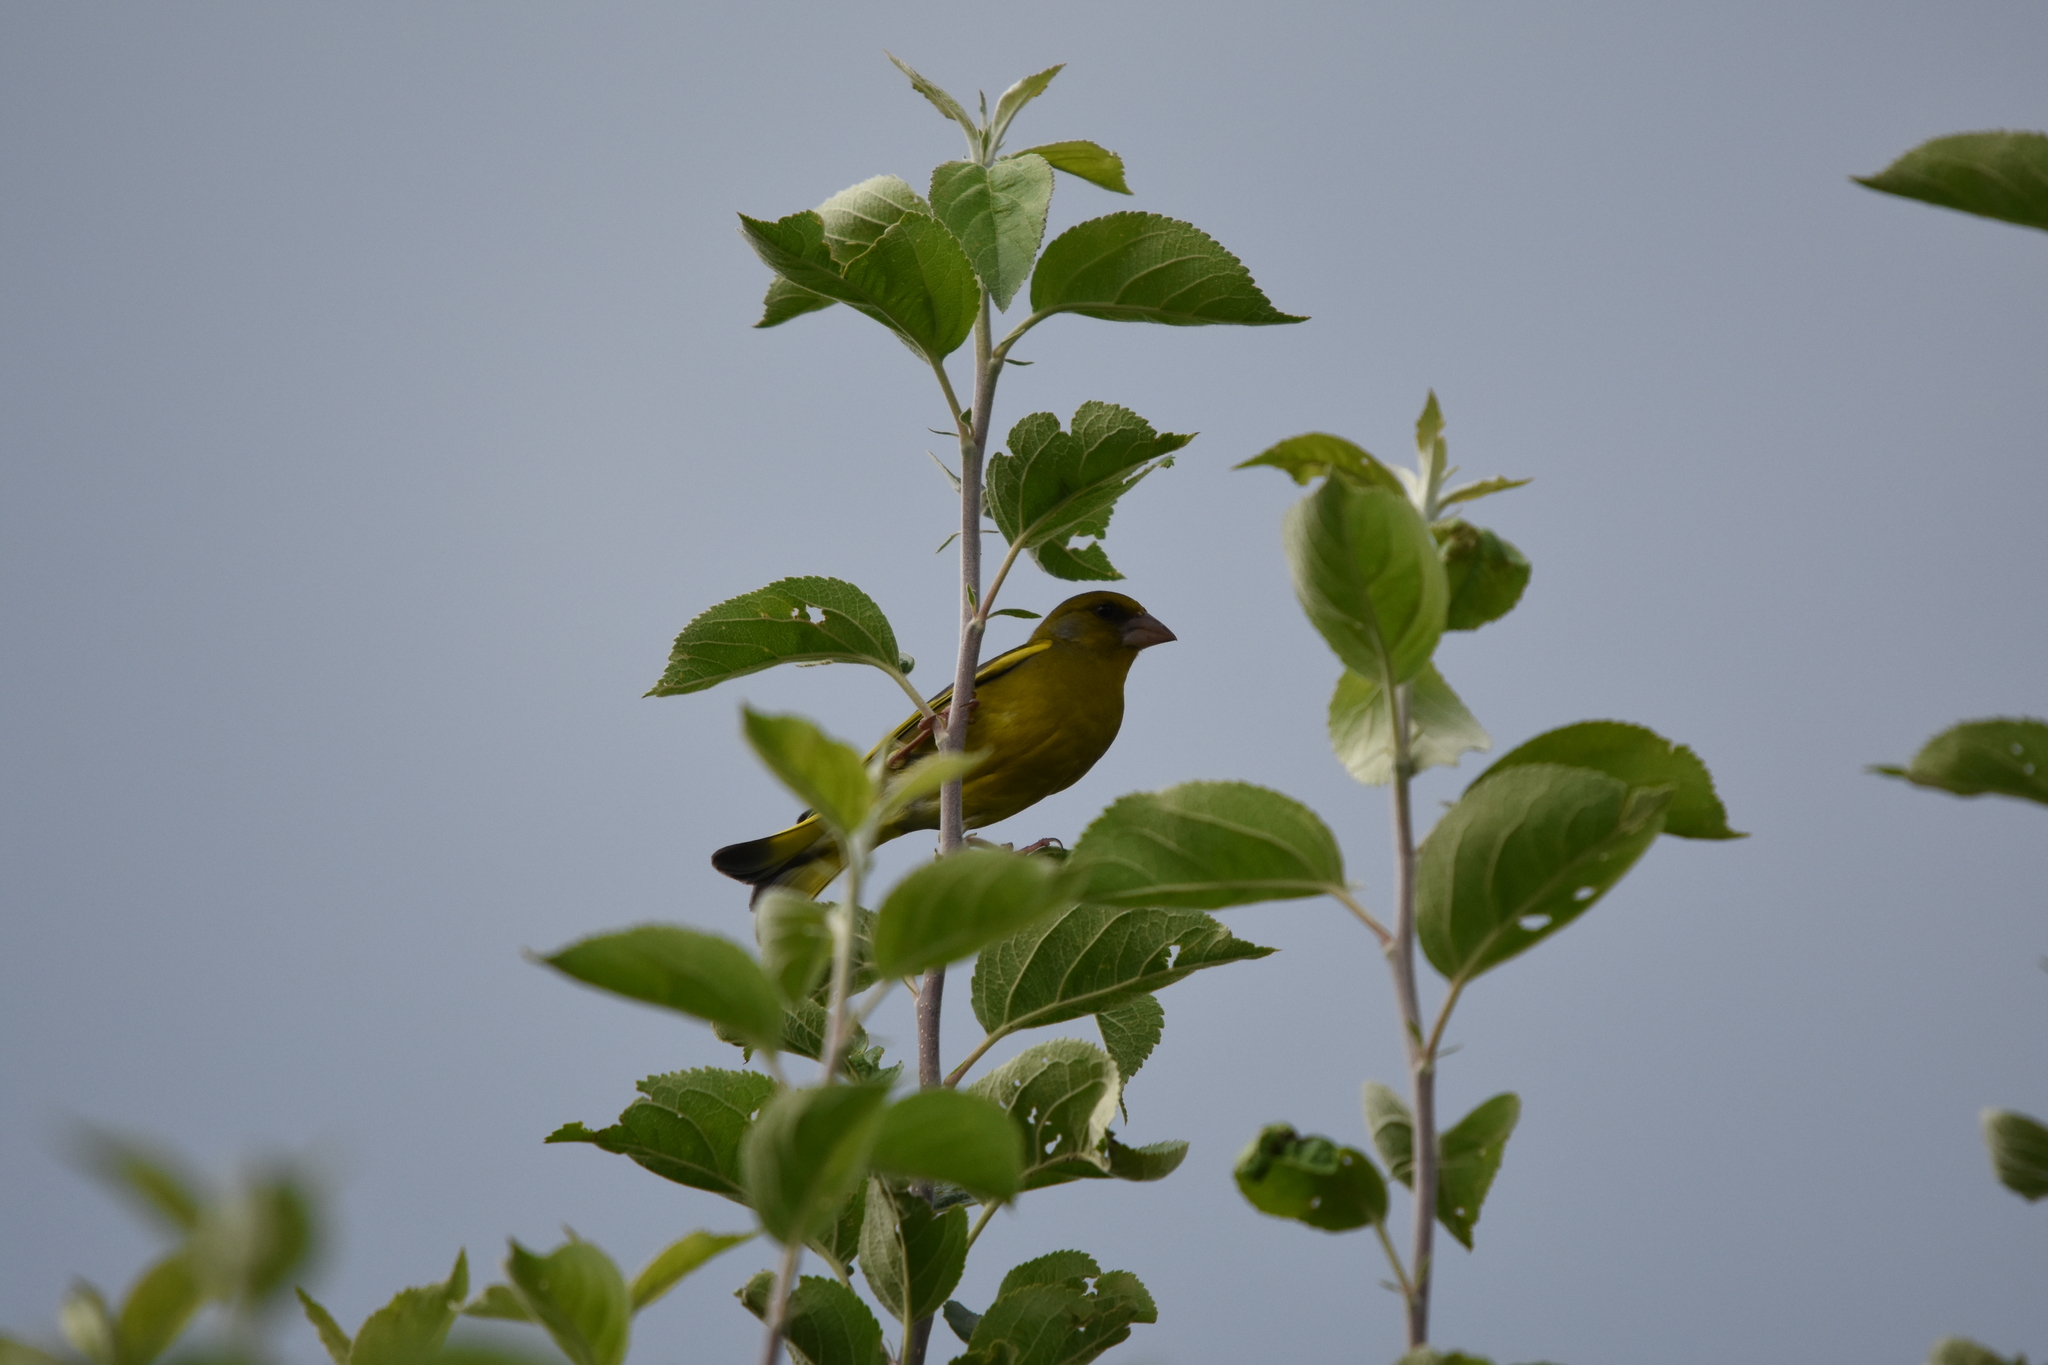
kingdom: Plantae
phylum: Tracheophyta
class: Liliopsida
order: Poales
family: Poaceae
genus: Chloris
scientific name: Chloris chloris
